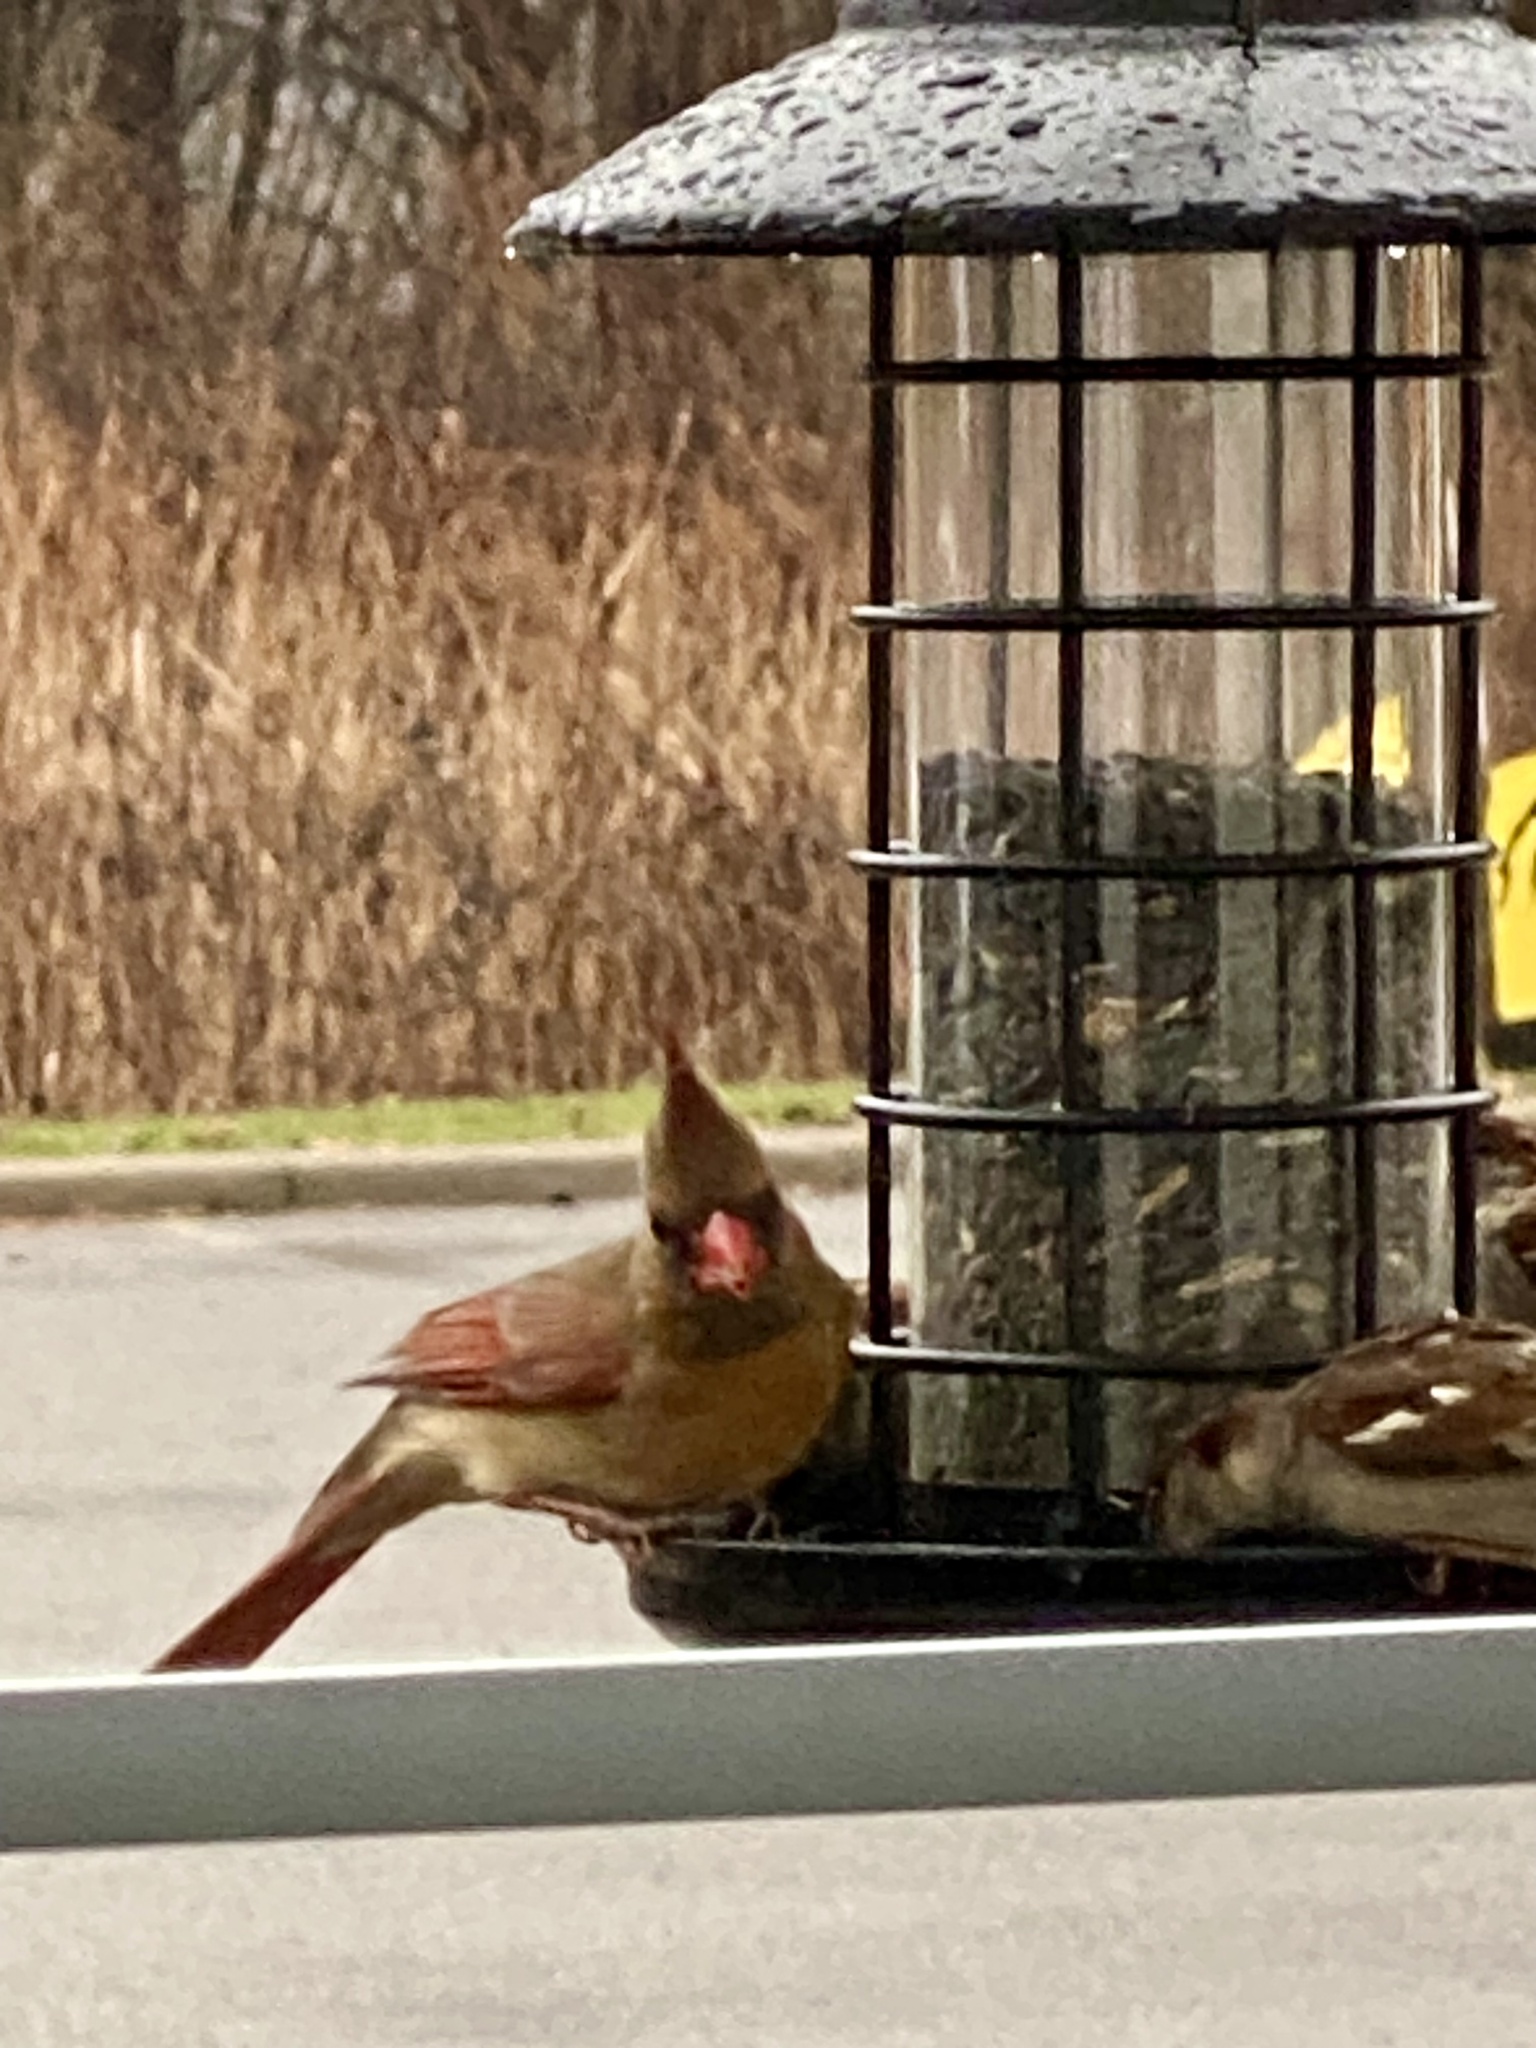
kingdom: Animalia
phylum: Chordata
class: Aves
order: Passeriformes
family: Cardinalidae
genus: Cardinalis
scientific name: Cardinalis cardinalis
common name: Northern cardinal
